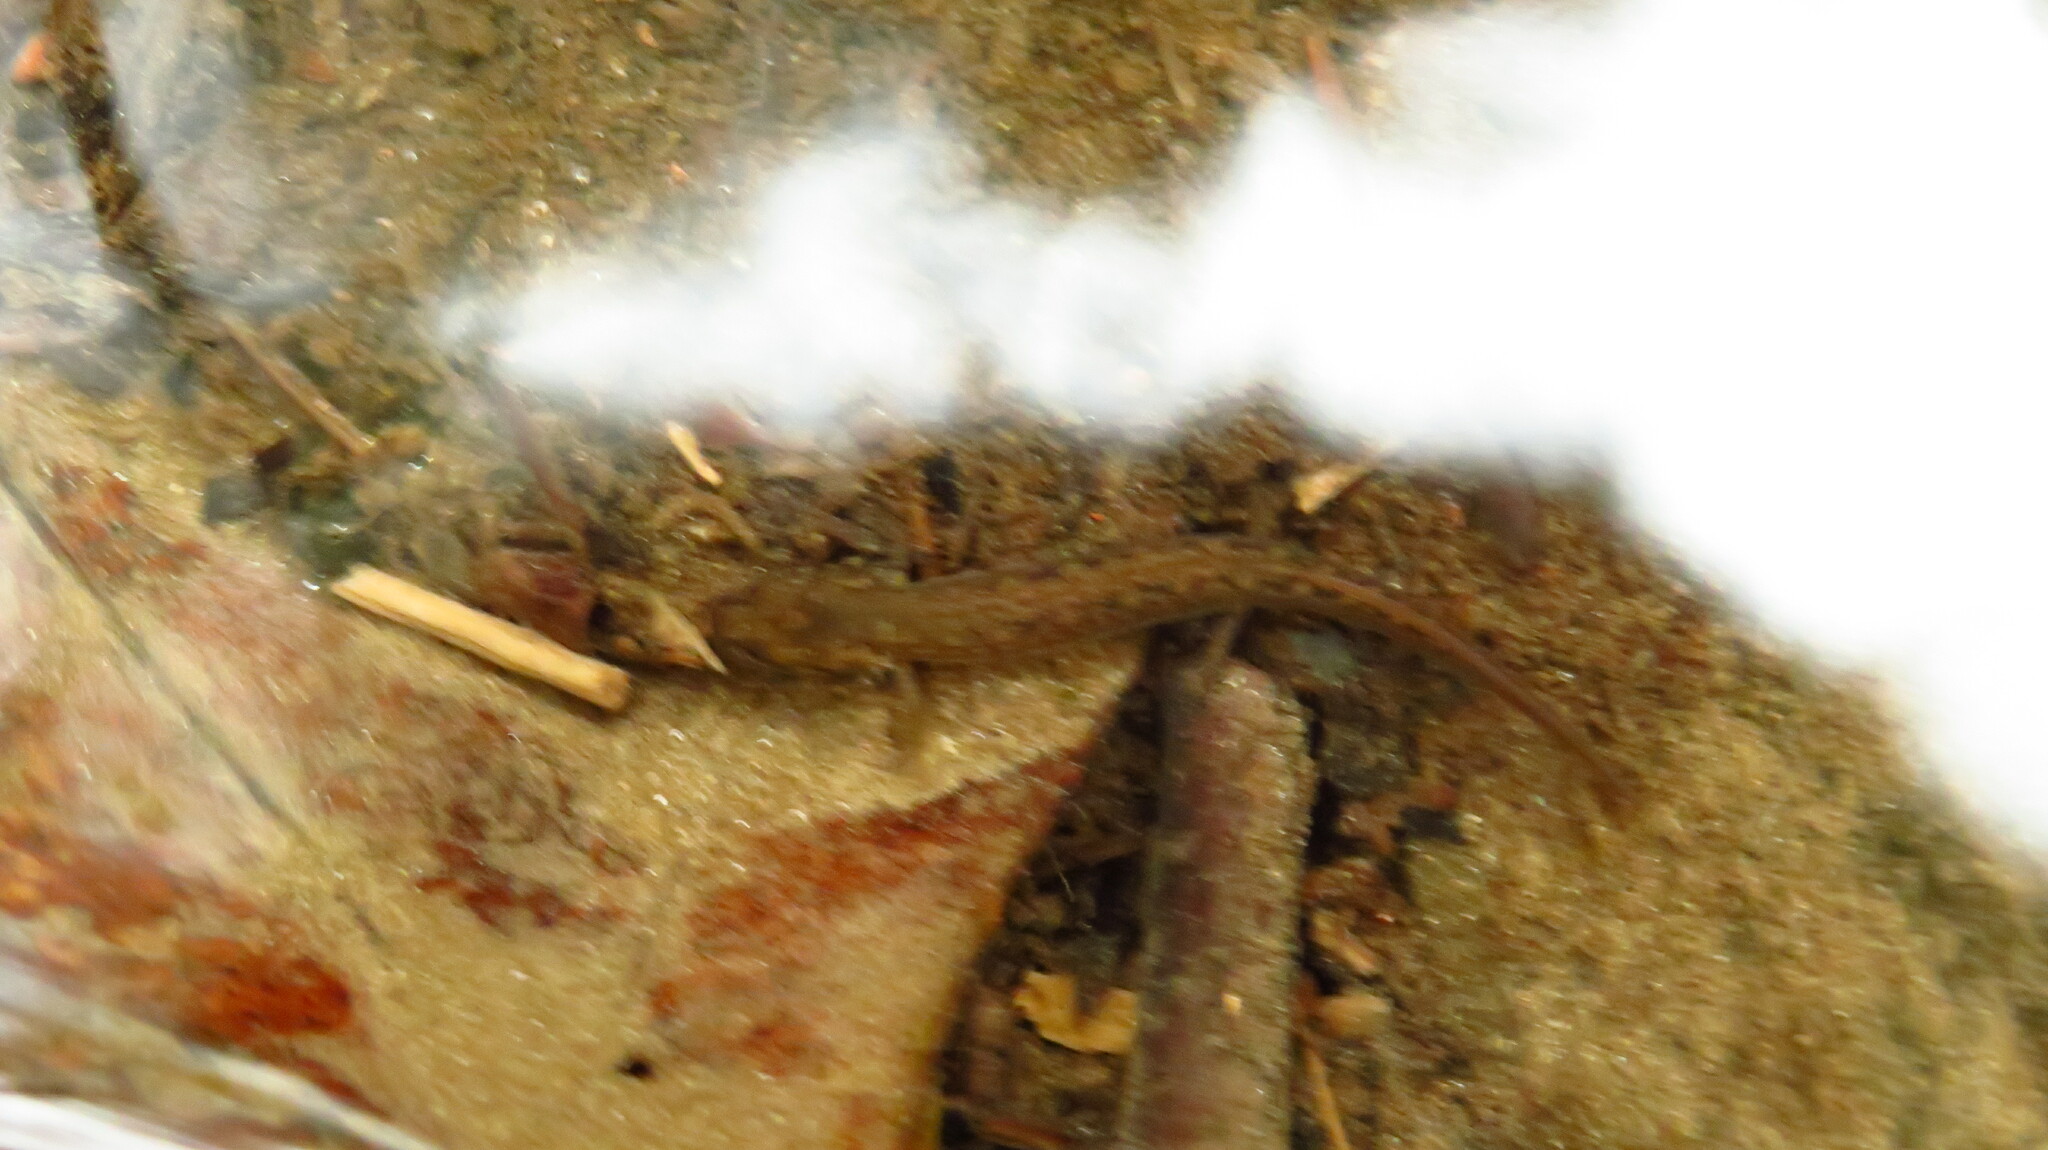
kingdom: Animalia
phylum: Chordata
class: Amphibia
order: Caudata
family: Plethodontidae
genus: Eurycea
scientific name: Eurycea bislineata
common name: Northern two-lined salamander
